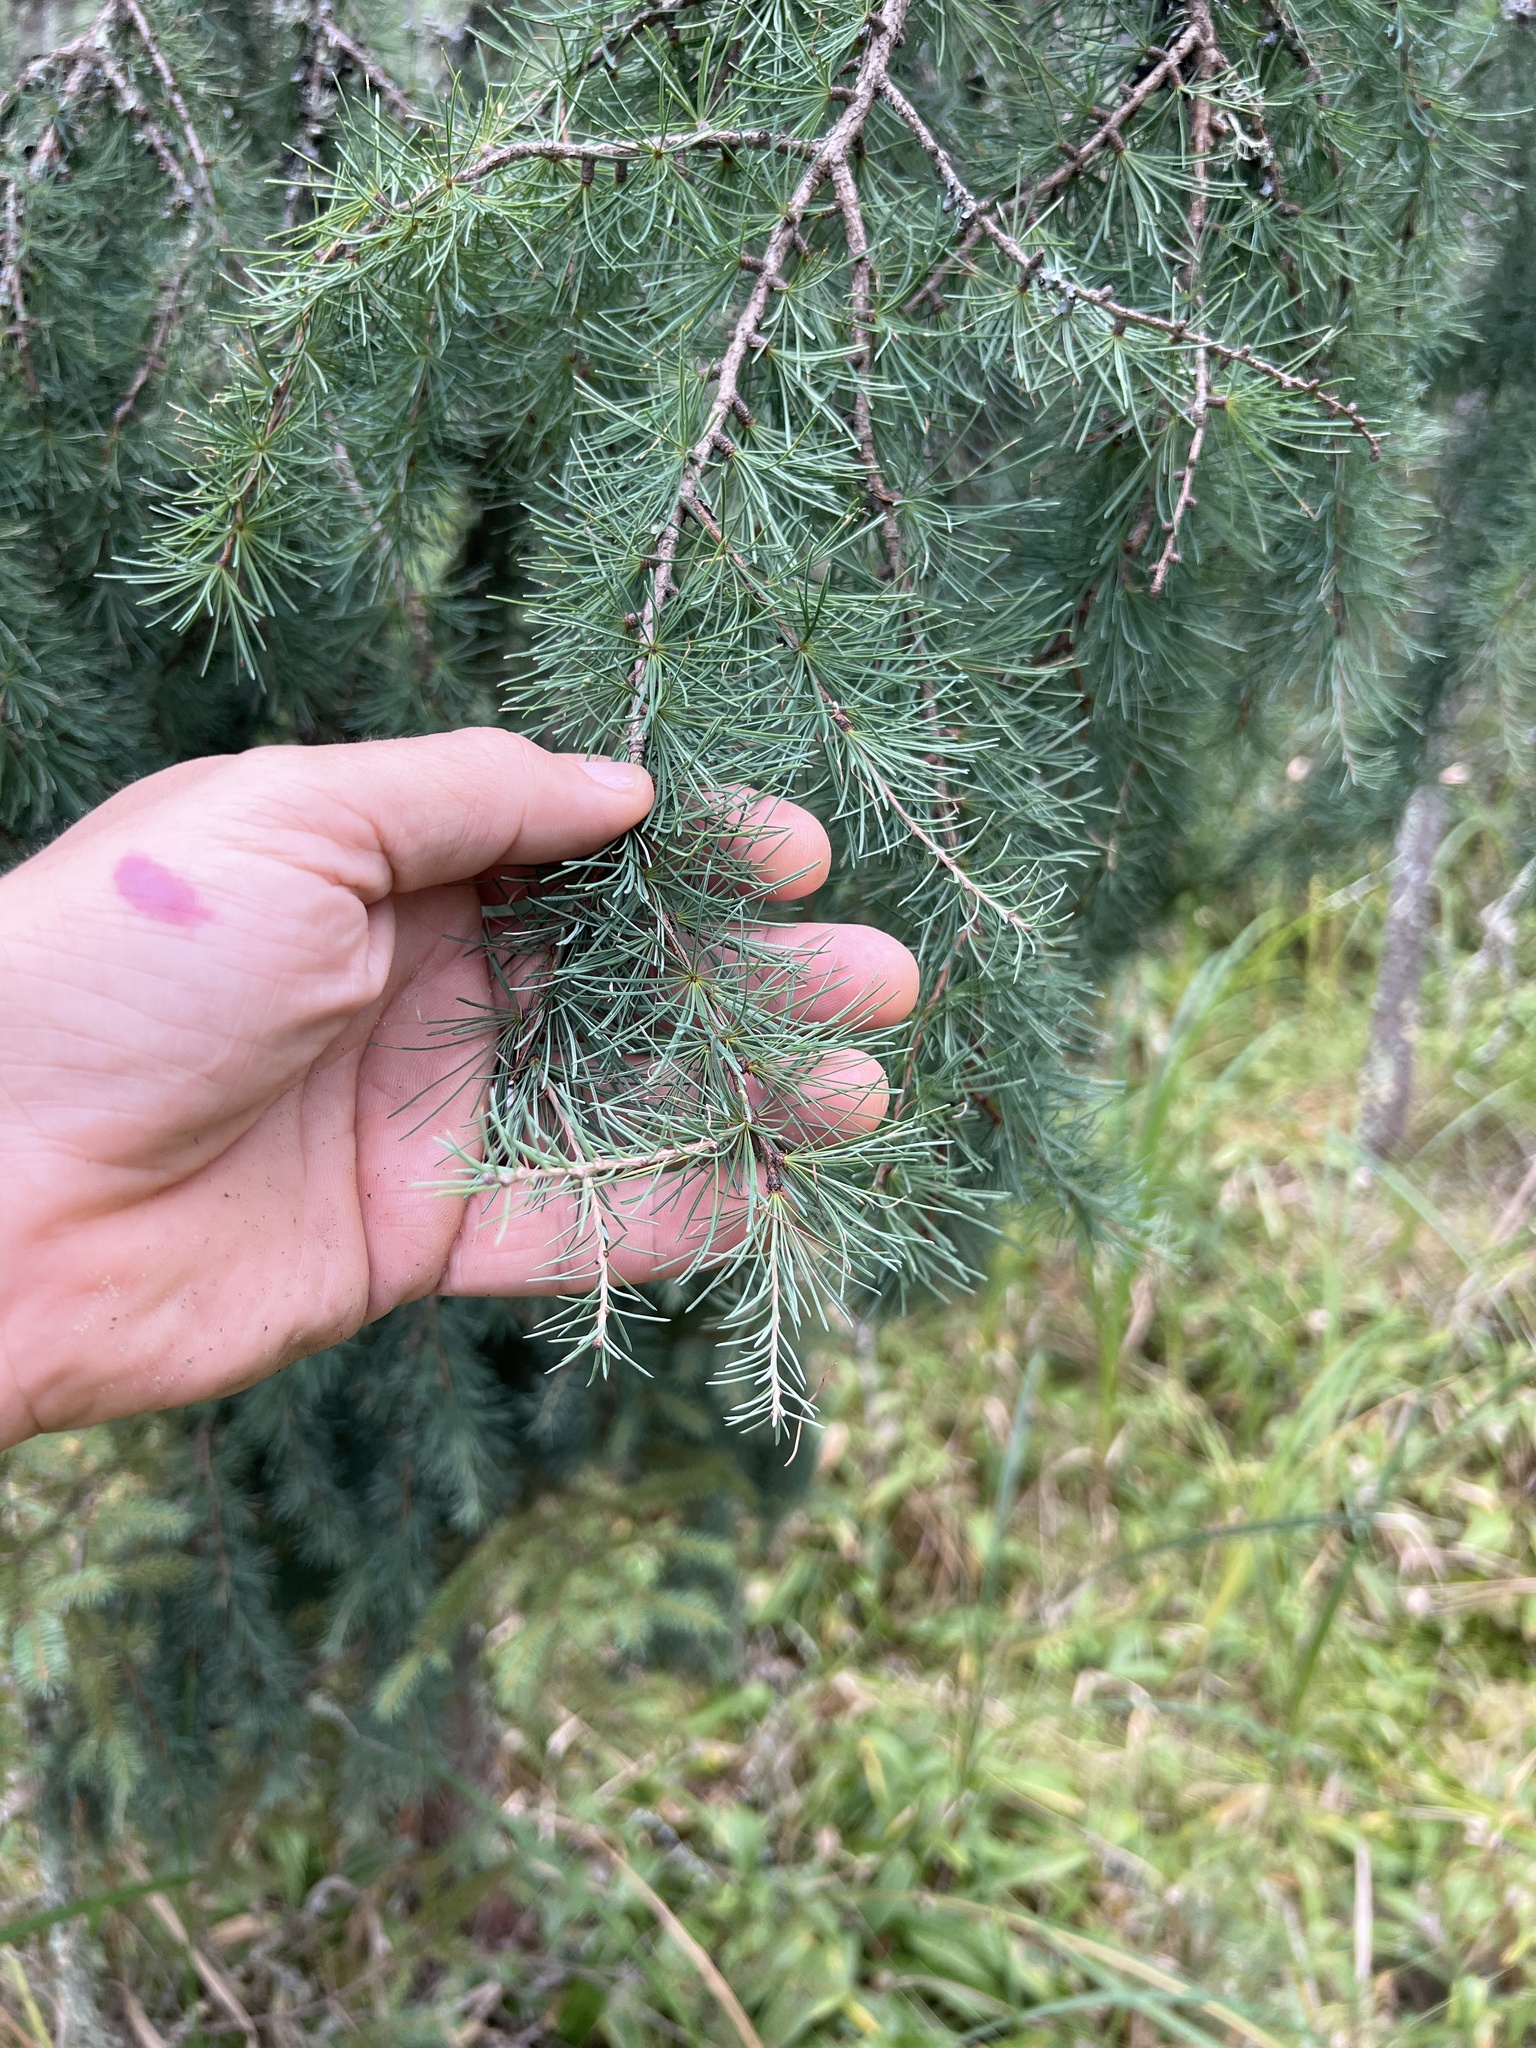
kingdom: Plantae
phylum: Tracheophyta
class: Pinopsida
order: Pinales
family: Pinaceae
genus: Larix
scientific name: Larix laricina
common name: American larch
